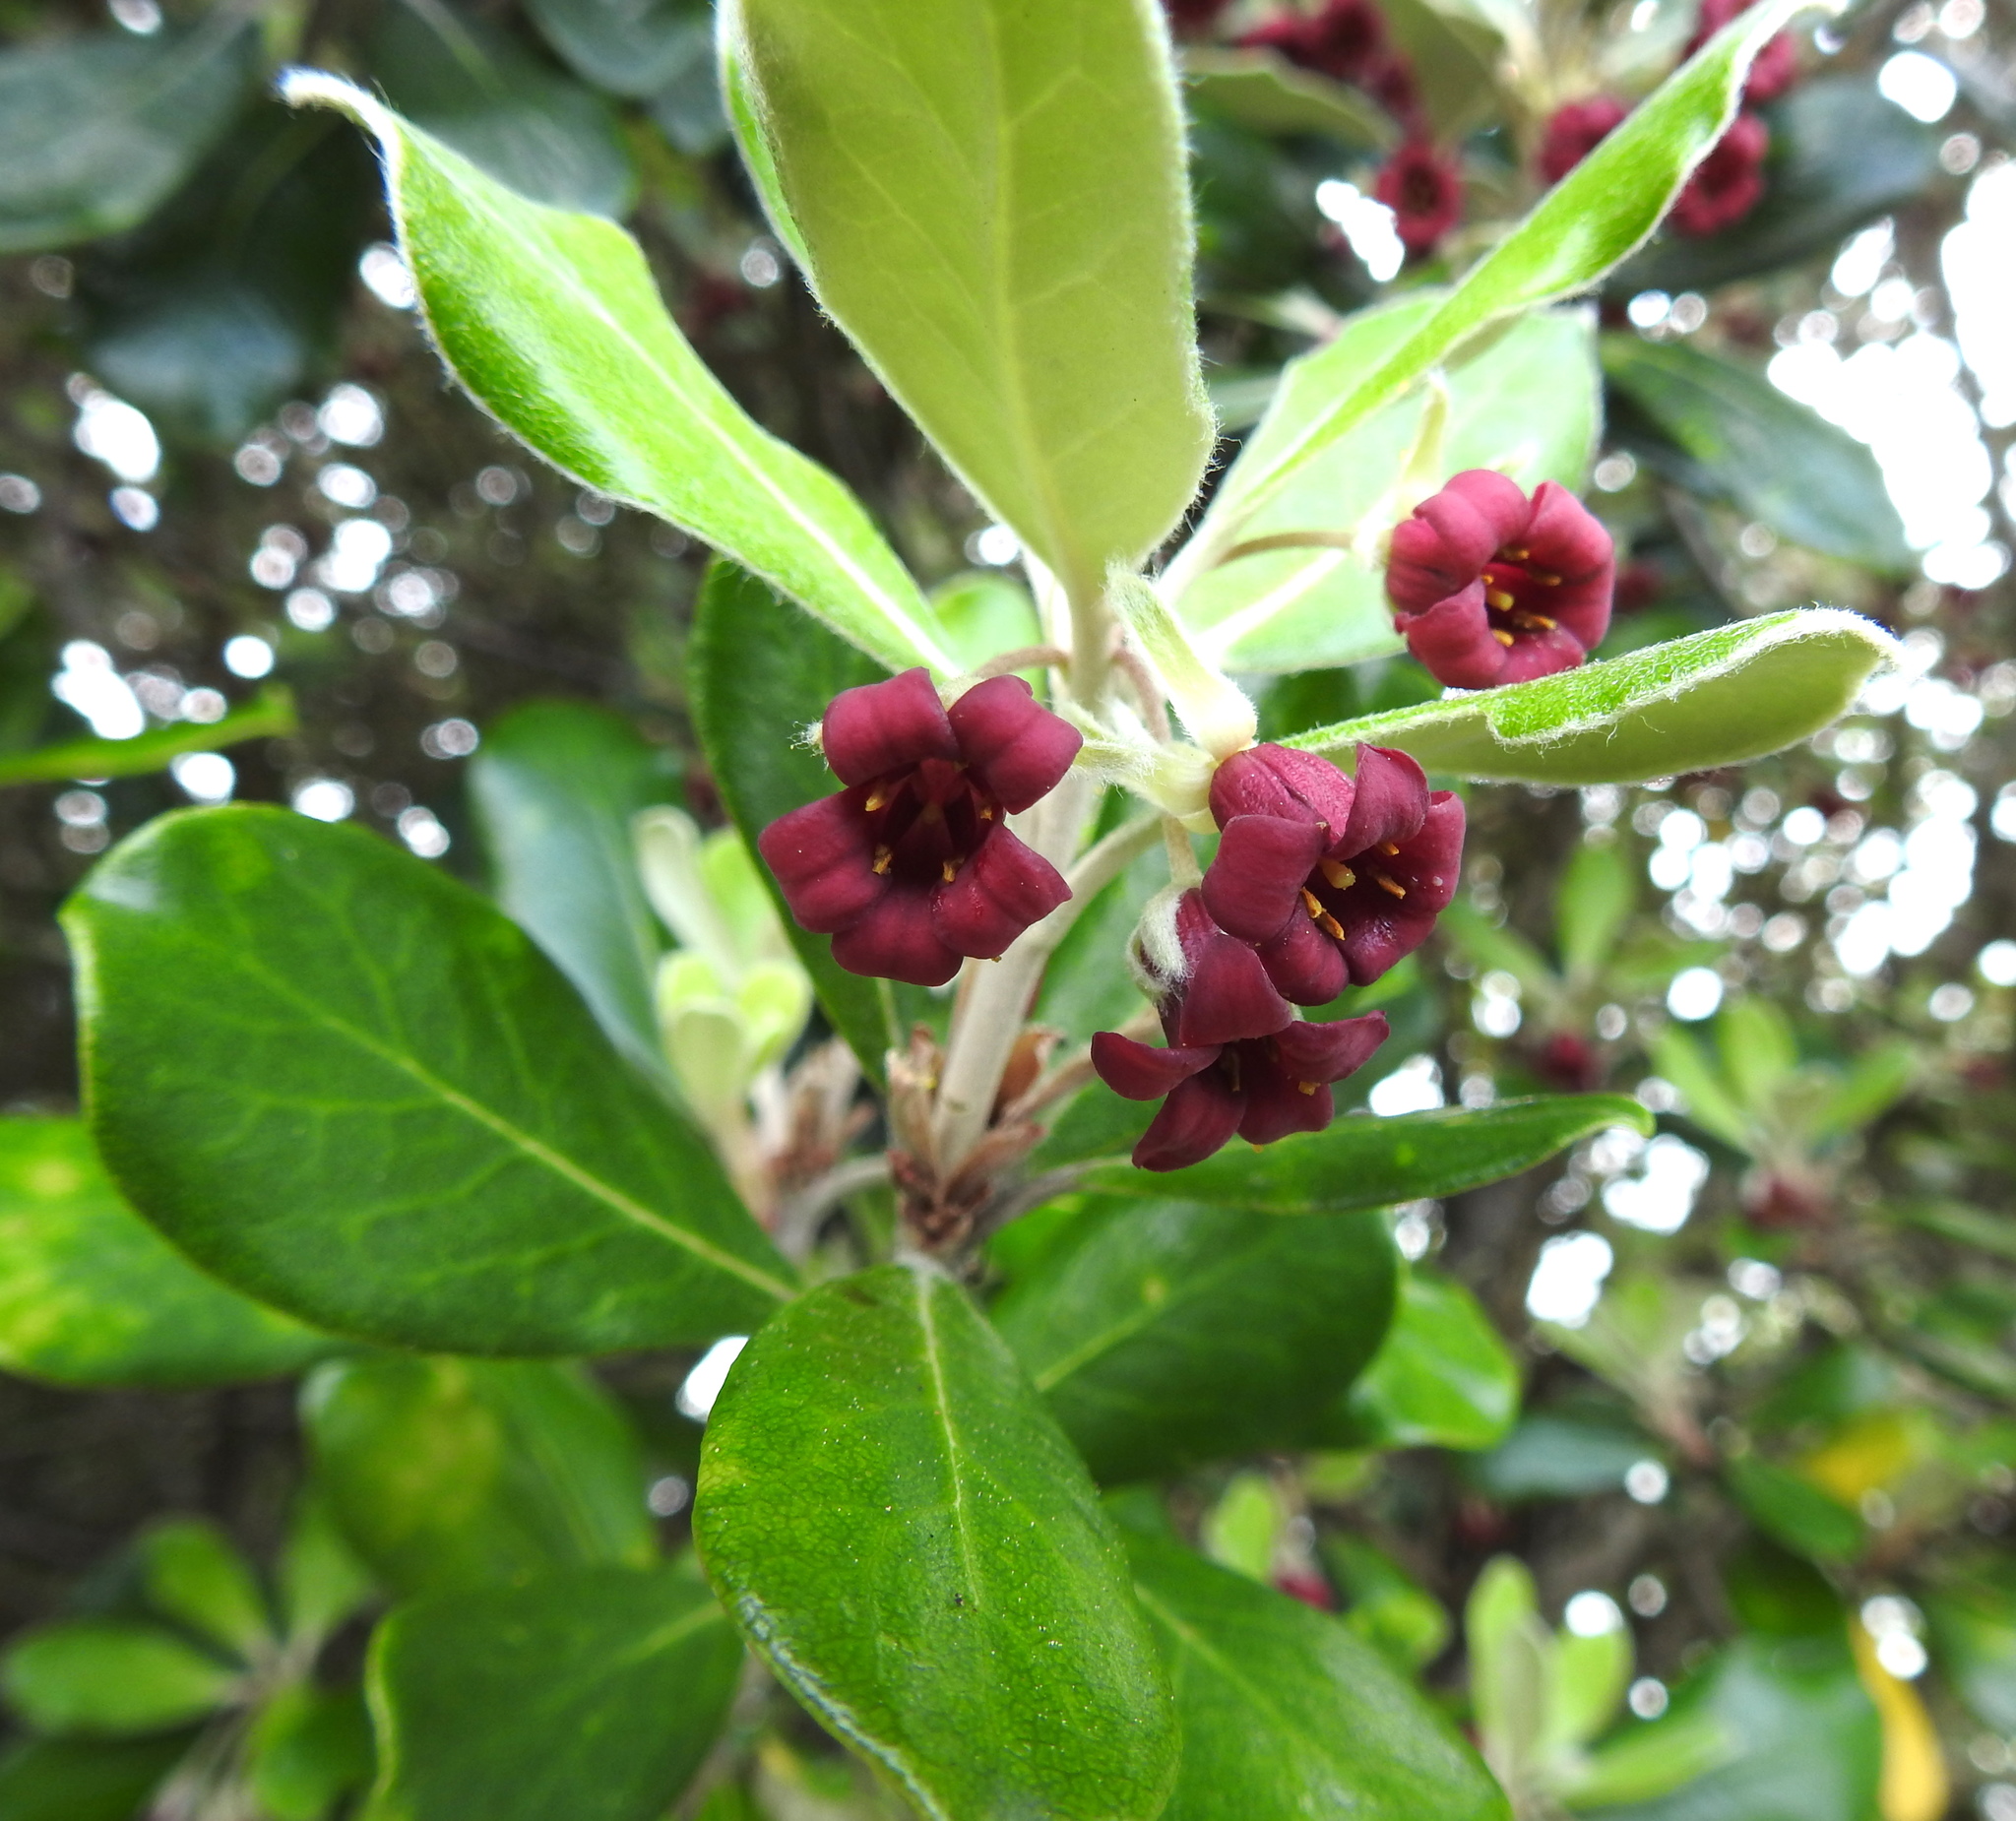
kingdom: Plantae
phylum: Tracheophyta
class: Magnoliopsida
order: Apiales
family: Pittosporaceae
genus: Pittosporum
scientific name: Pittosporum crassifolium
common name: Karo
